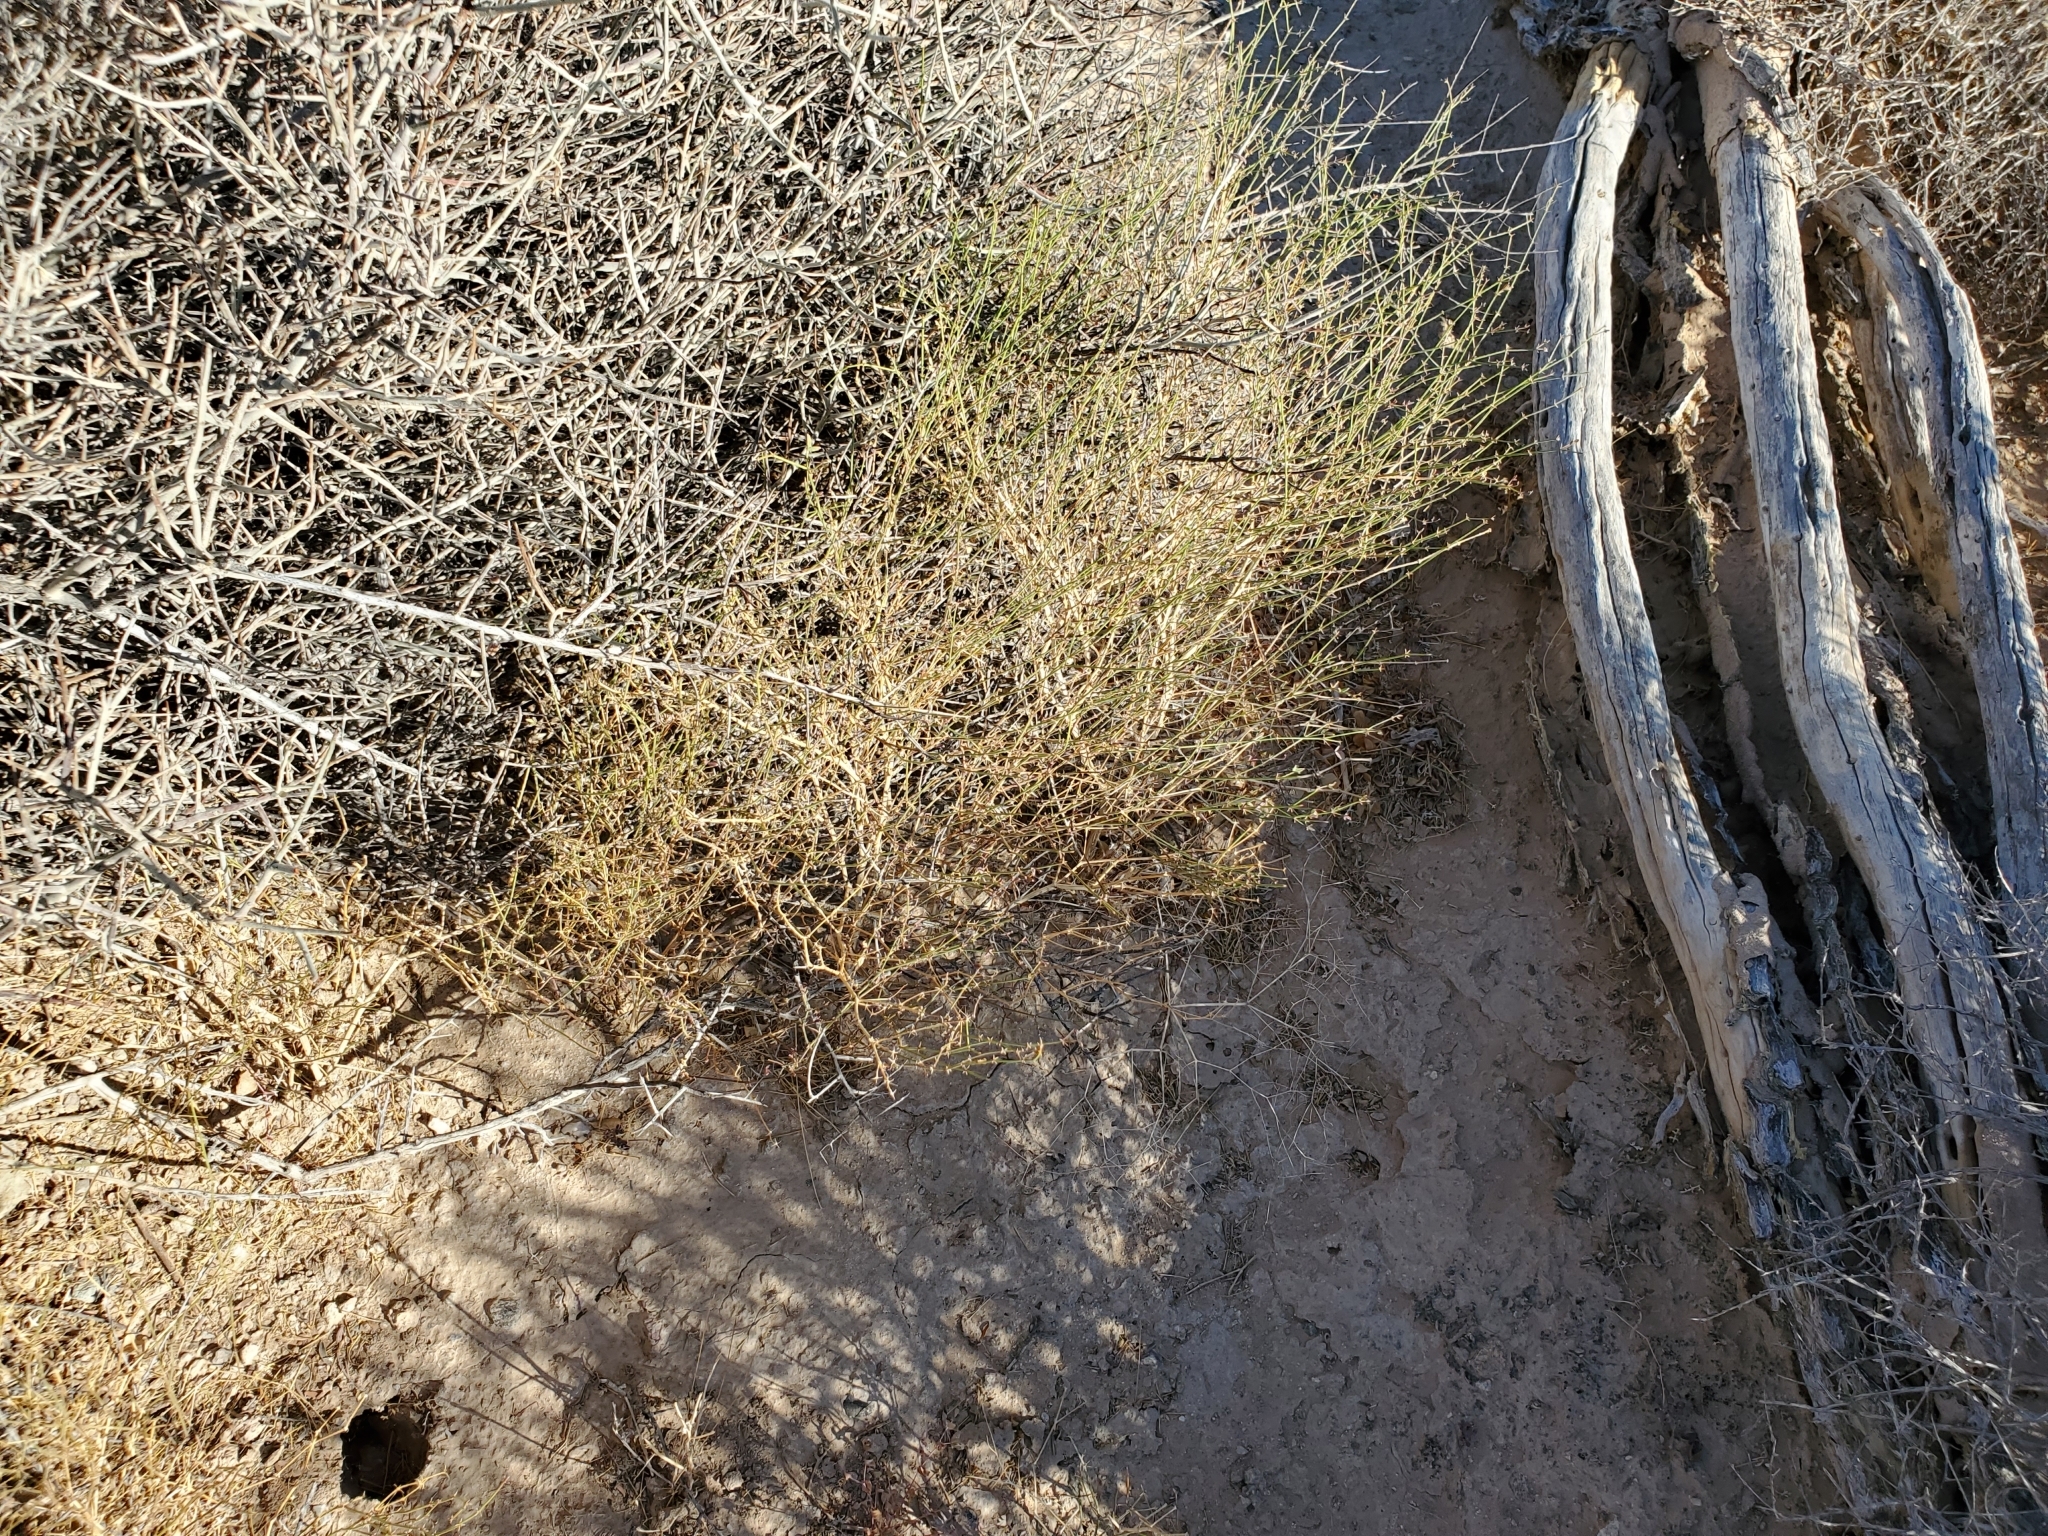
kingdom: Plantae
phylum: Tracheophyta
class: Magnoliopsida
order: Zygophyllales
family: Zygophyllaceae
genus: Fagonia
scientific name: Fagonia laevis
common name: California fagonbush
